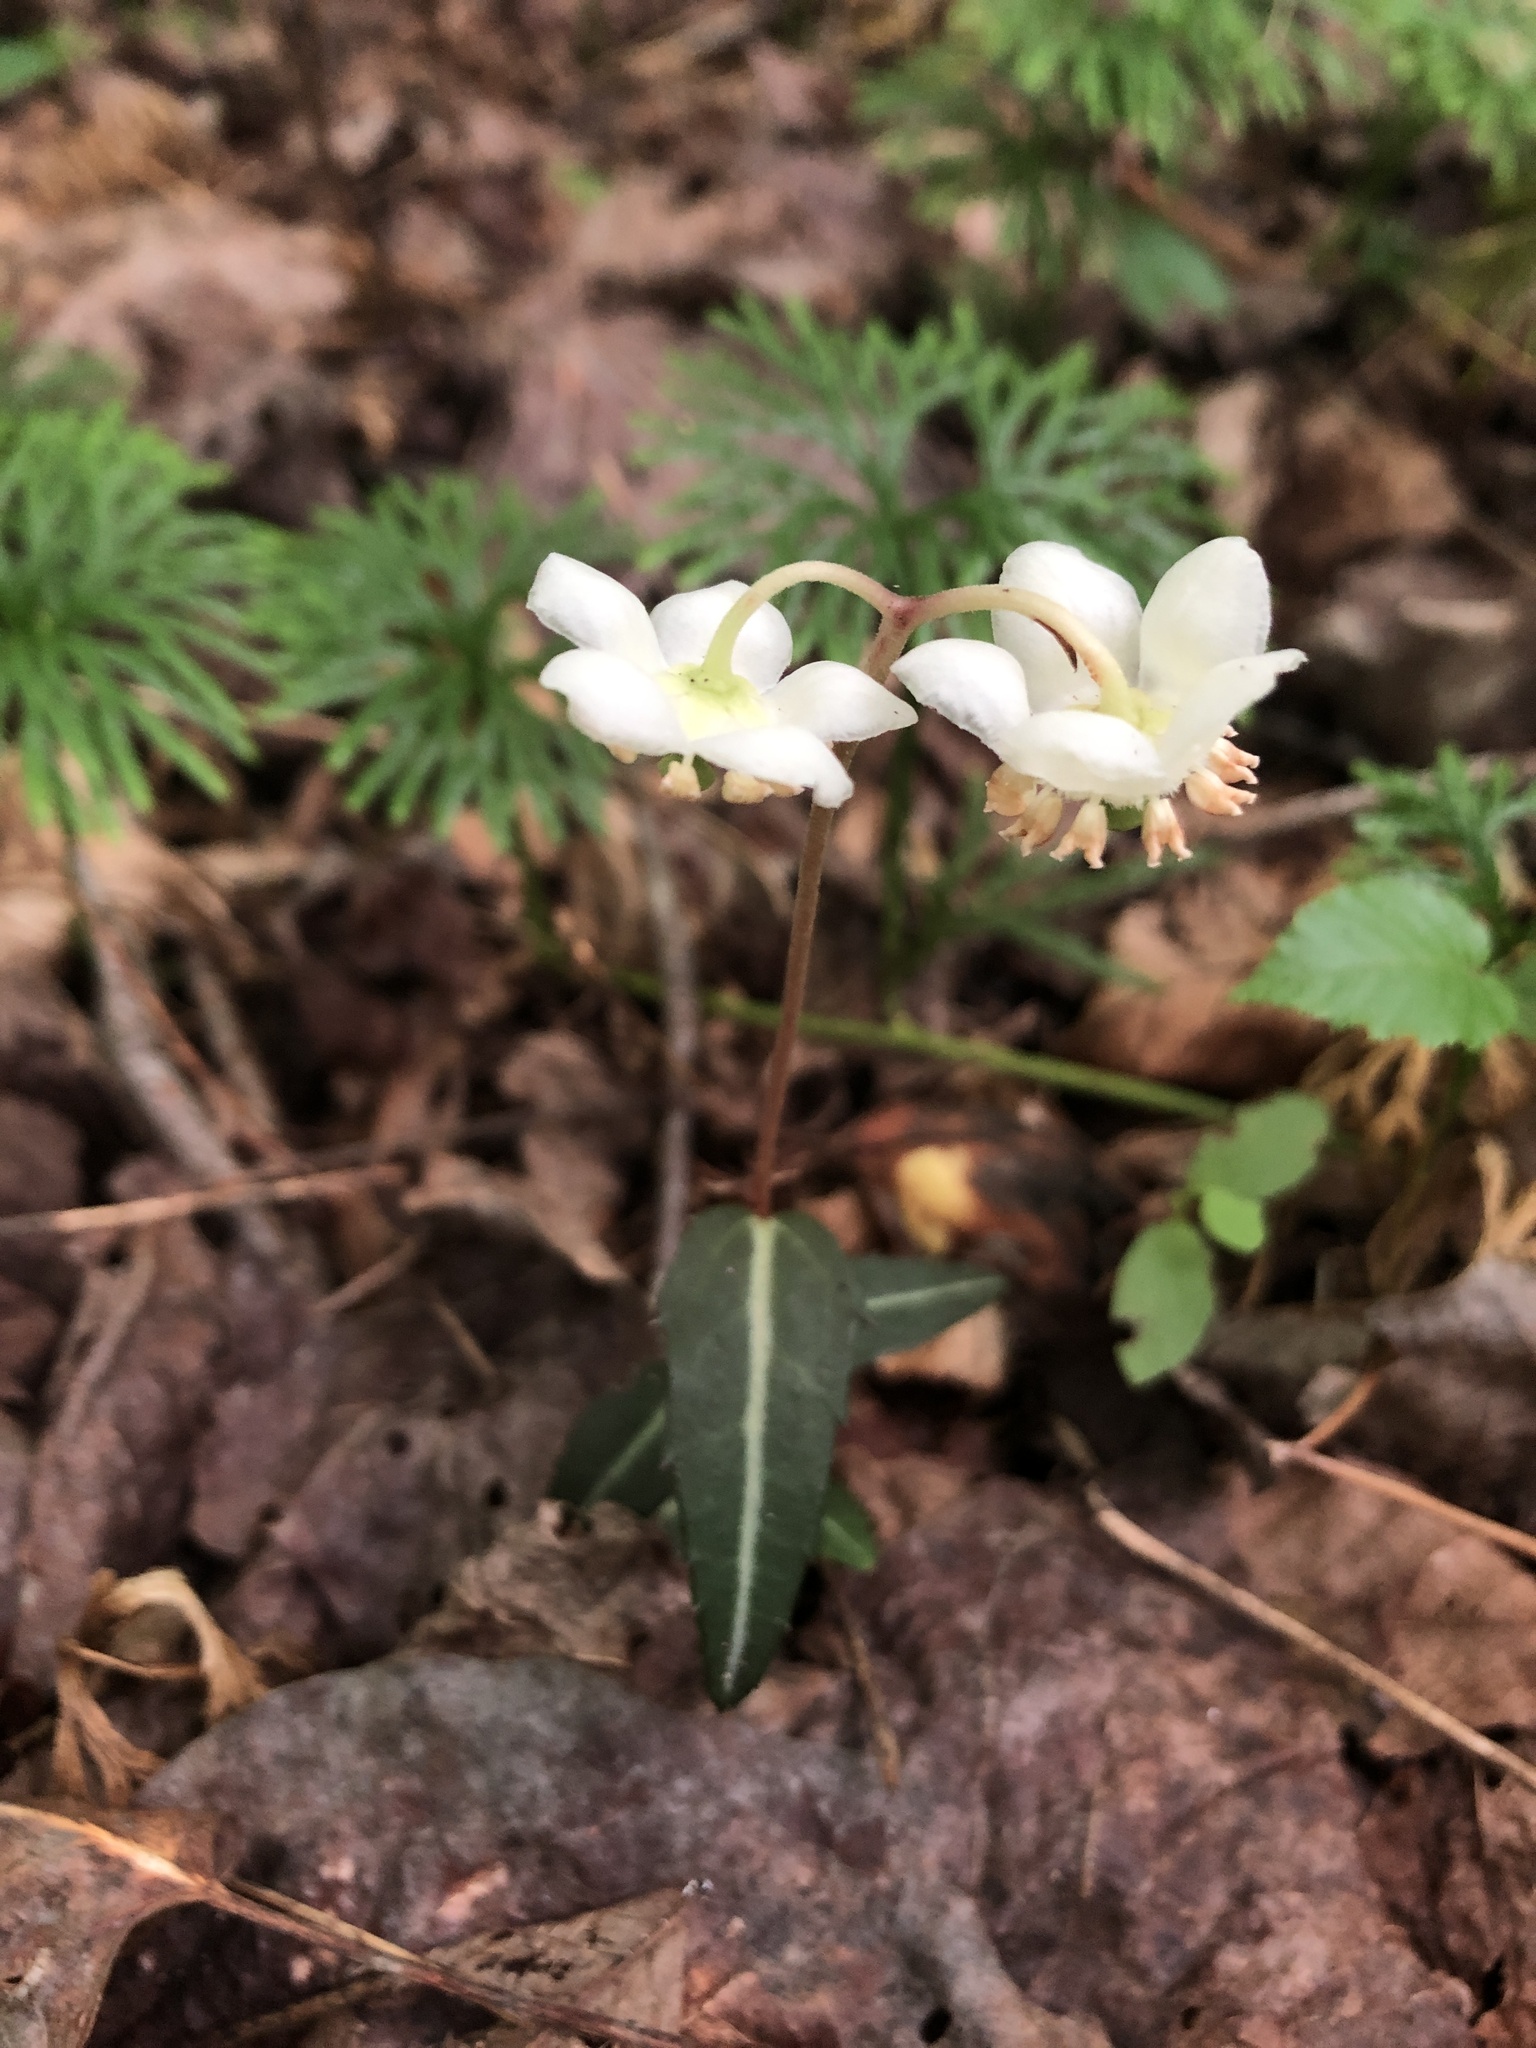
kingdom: Plantae
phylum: Tracheophyta
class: Magnoliopsida
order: Ericales
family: Ericaceae
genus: Chimaphila
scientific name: Chimaphila maculata
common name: Spotted pipsissewa
